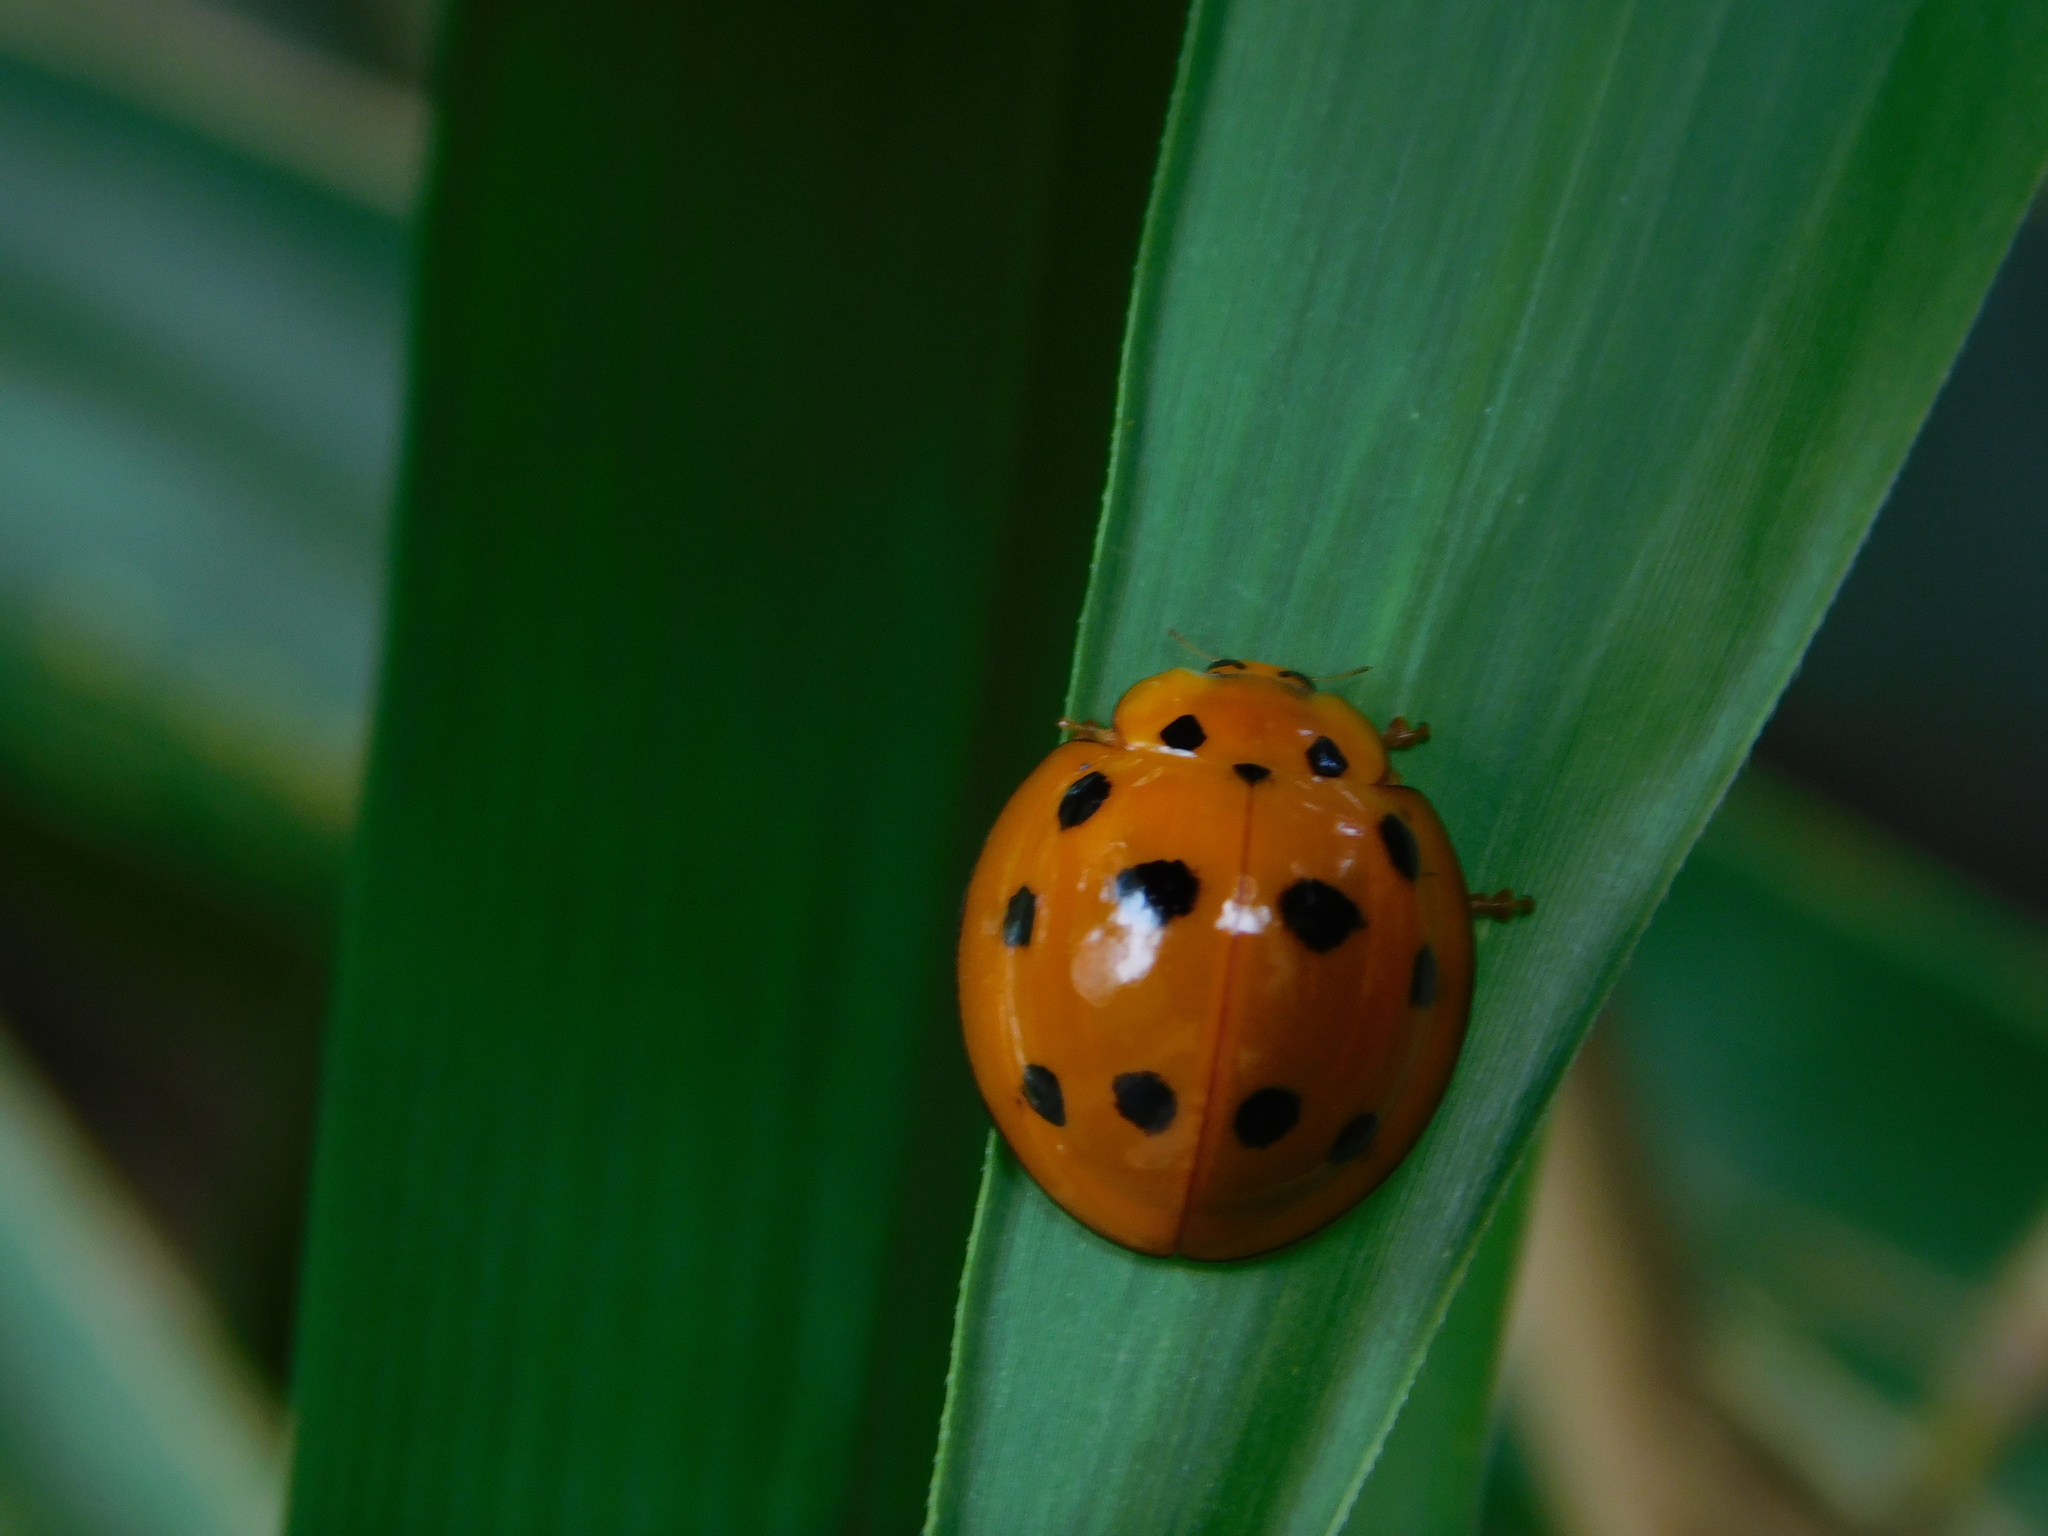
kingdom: Animalia
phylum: Arthropoda
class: Insecta
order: Coleoptera
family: Coccinellidae
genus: Megalocaria
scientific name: Megalocaria dilatata
